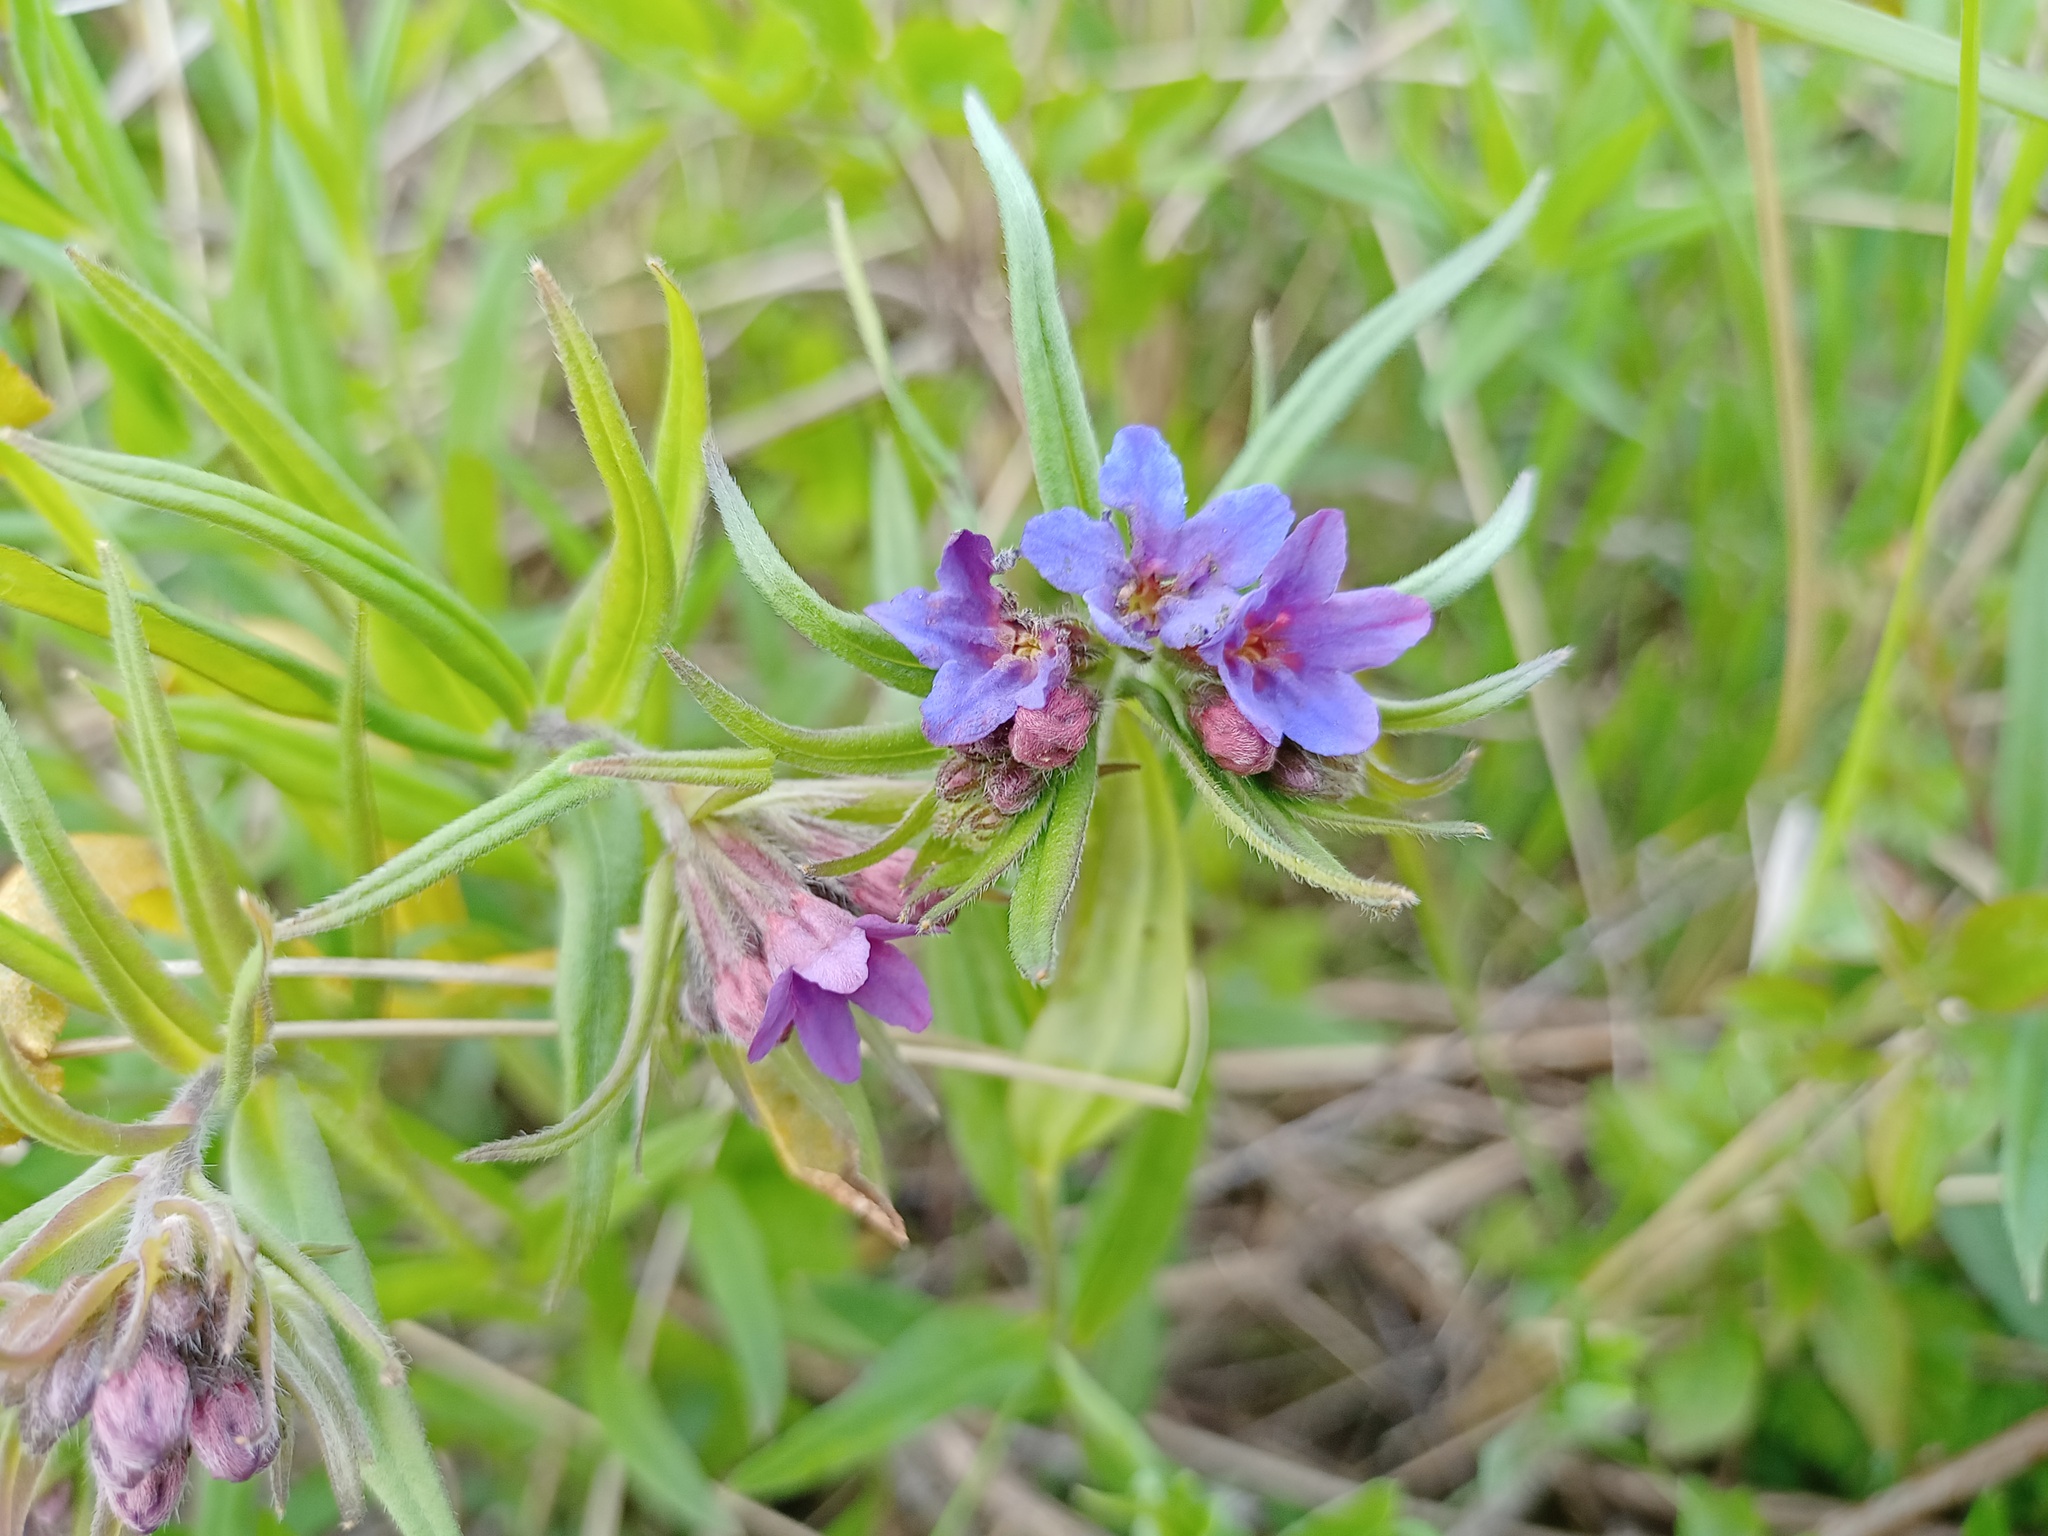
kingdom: Plantae
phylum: Tracheophyta
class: Magnoliopsida
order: Boraginales
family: Boraginaceae
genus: Aegonychon
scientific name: Aegonychon purpurocaeruleum
